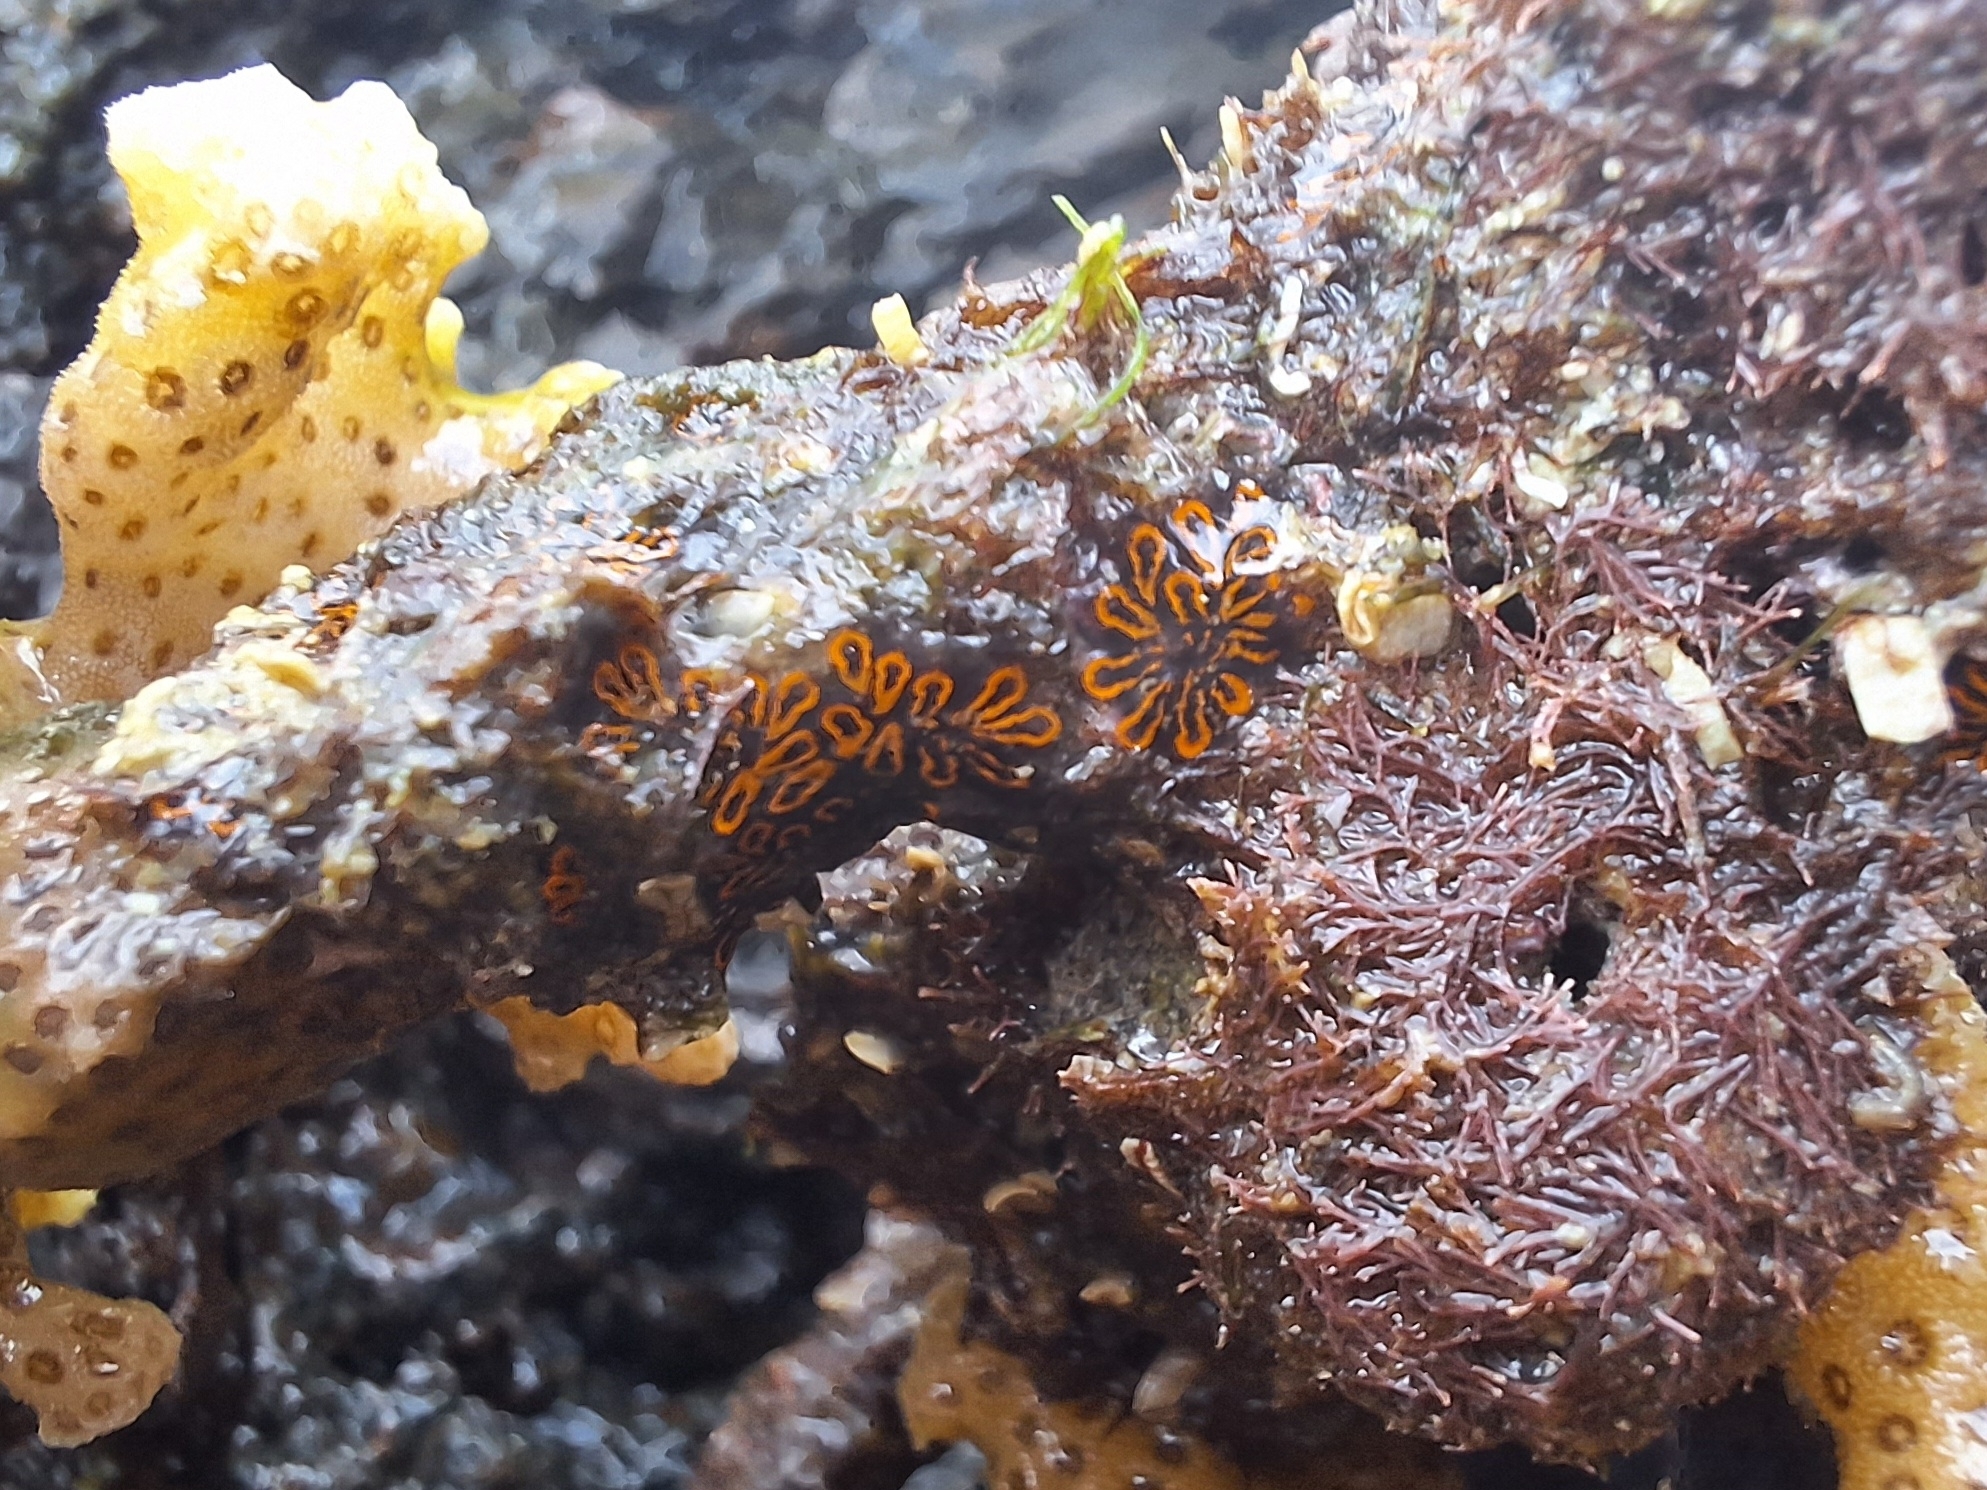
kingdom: Animalia
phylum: Chordata
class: Ascidiacea
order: Stolidobranchia
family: Styelidae
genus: Botrylloides
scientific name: Botrylloides niger
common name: Black synascidia
